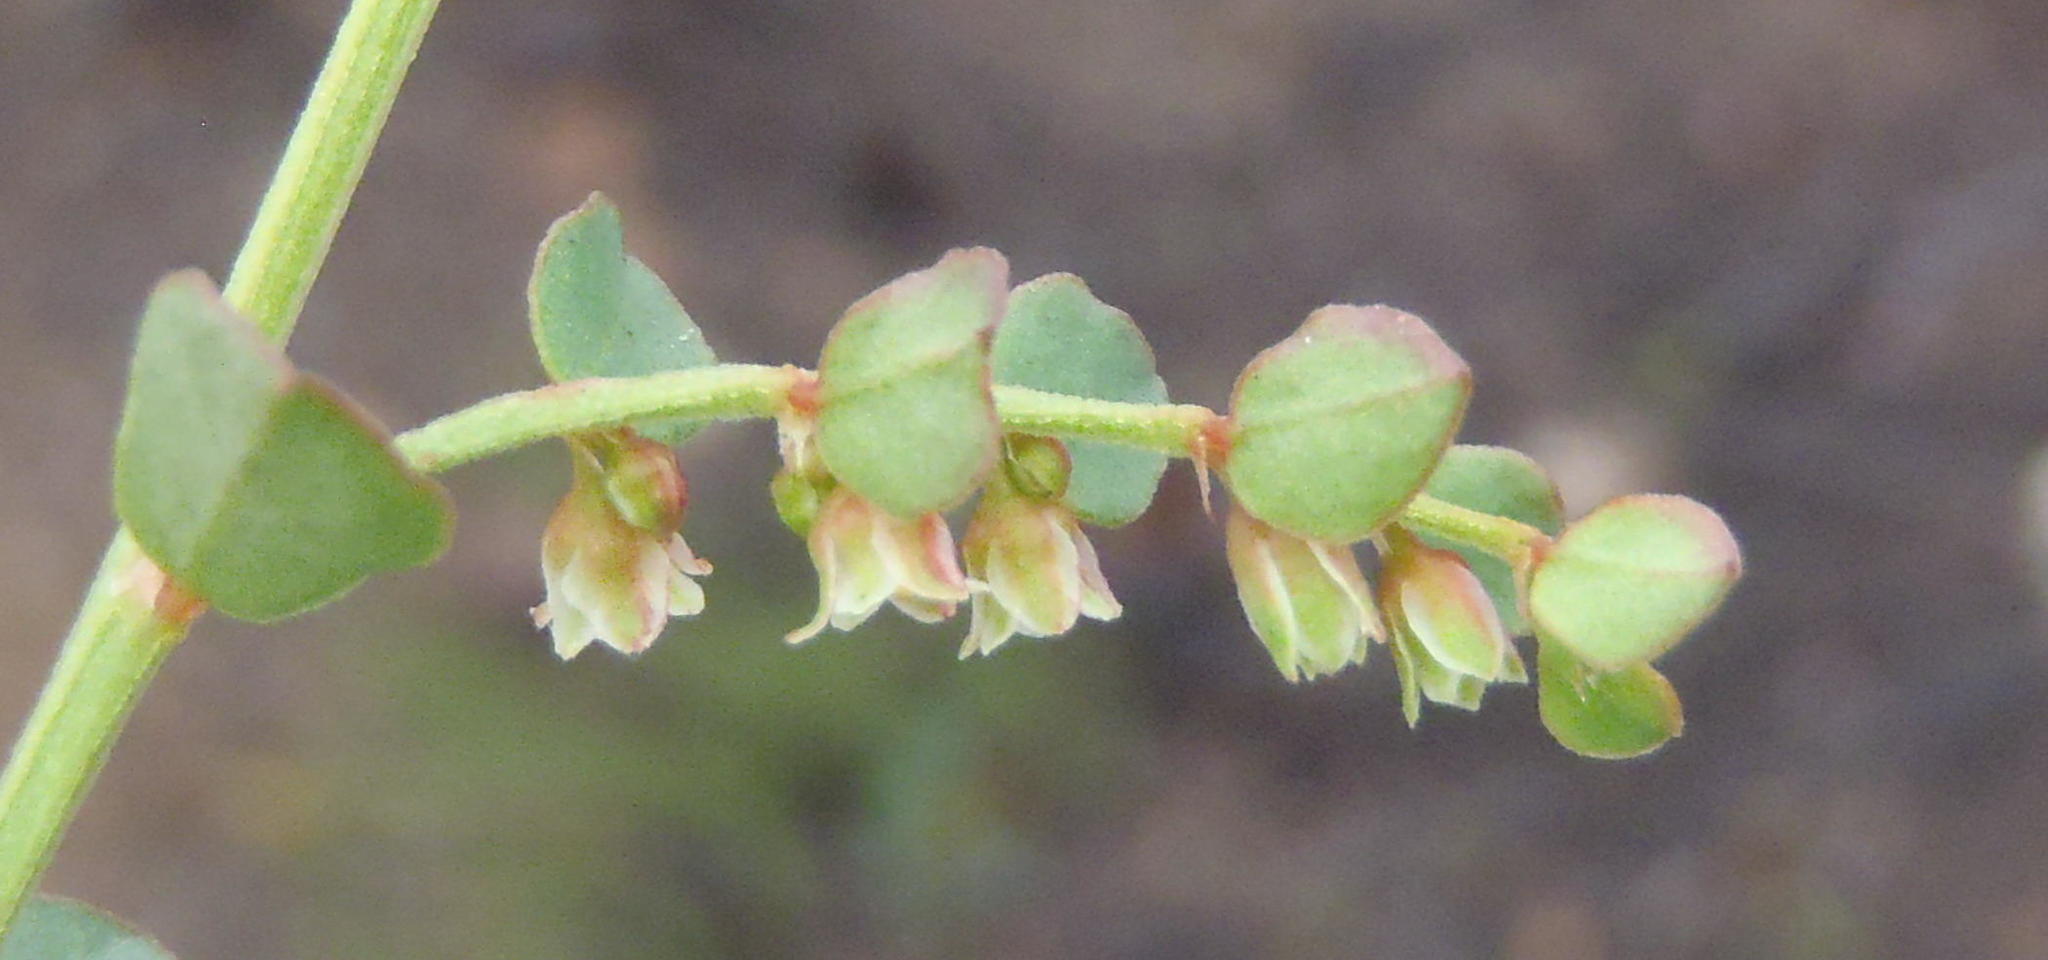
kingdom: Plantae
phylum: Tracheophyta
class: Magnoliopsida
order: Malpighiales
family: Phyllanthaceae
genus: Phyllanthus
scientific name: Phyllanthus parvulus
